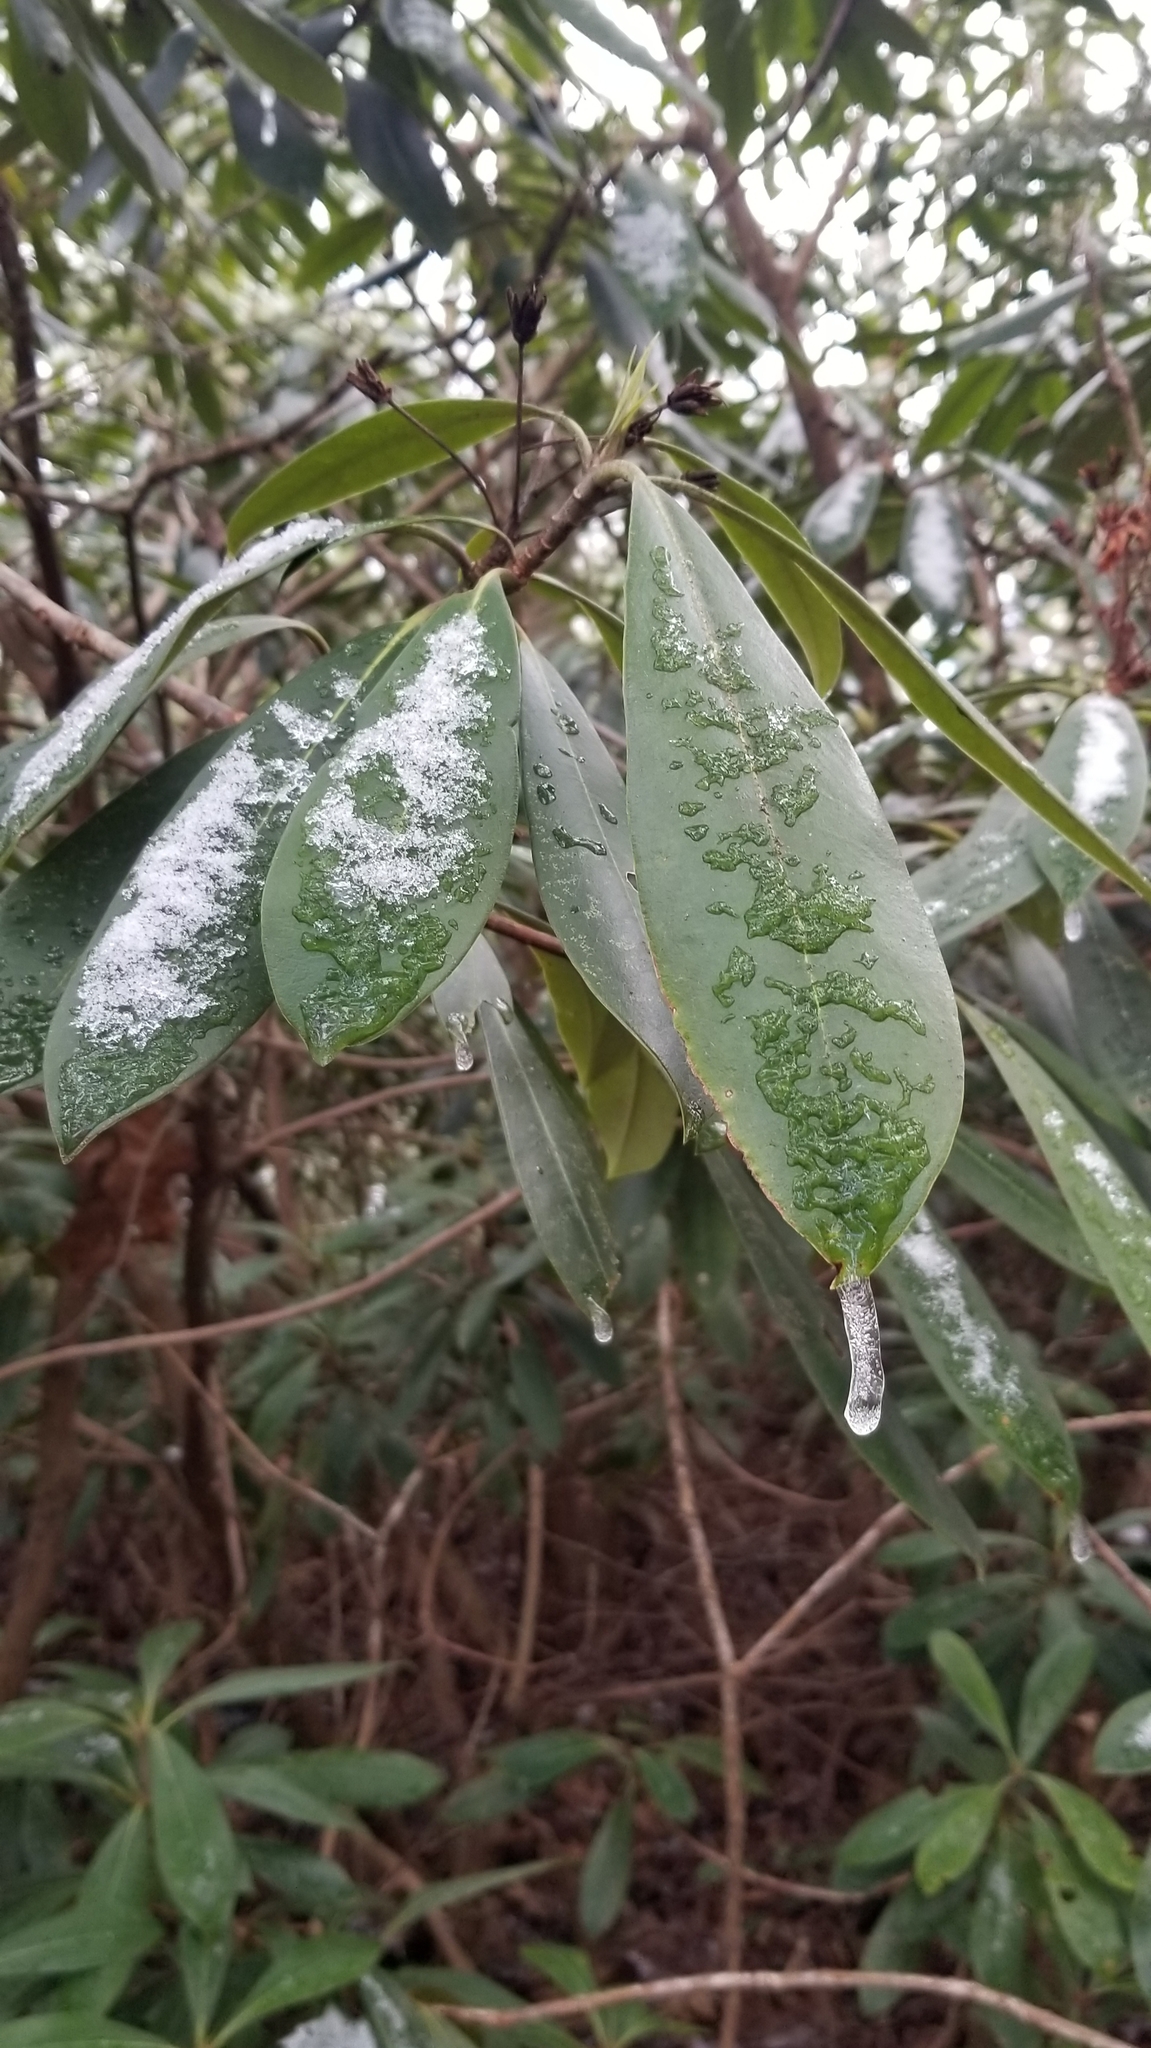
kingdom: Plantae
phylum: Tracheophyta
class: Magnoliopsida
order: Ericales
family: Ericaceae
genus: Rhododendron
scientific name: Rhododendron maximum
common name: Great rhododendron
